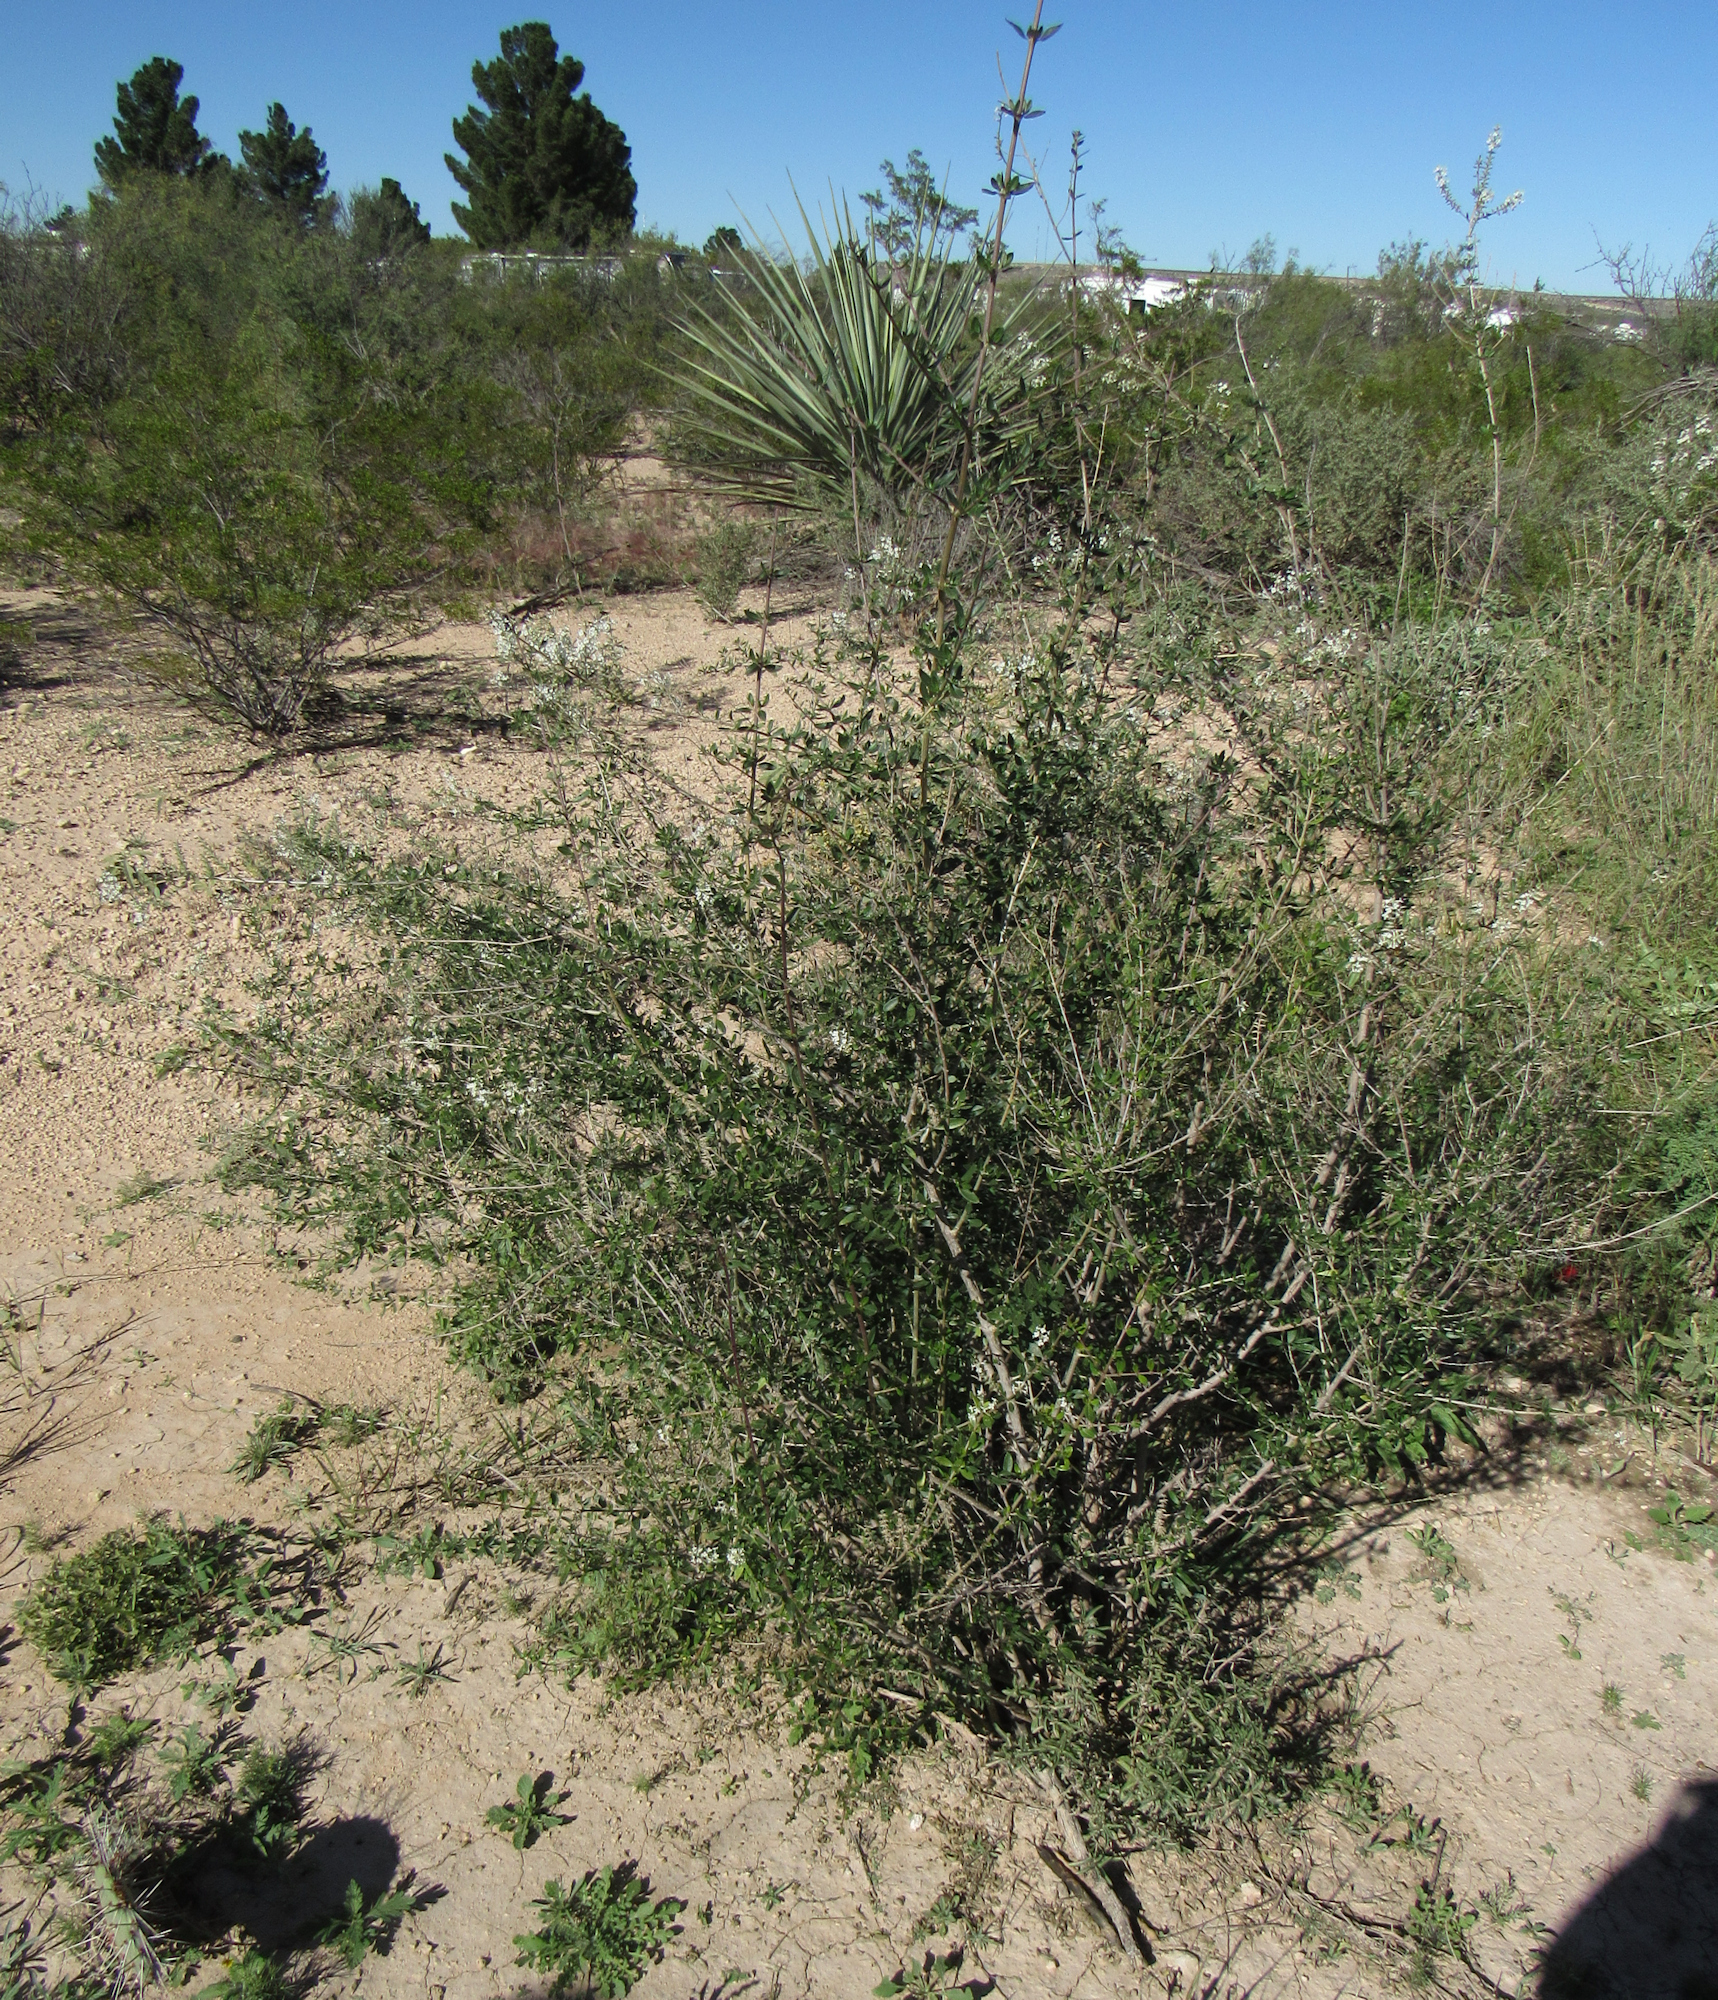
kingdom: Plantae
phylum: Tracheophyta
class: Magnoliopsida
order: Lamiales
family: Verbenaceae
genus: Aloysia
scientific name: Aloysia gratissima
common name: Common bee-brush
